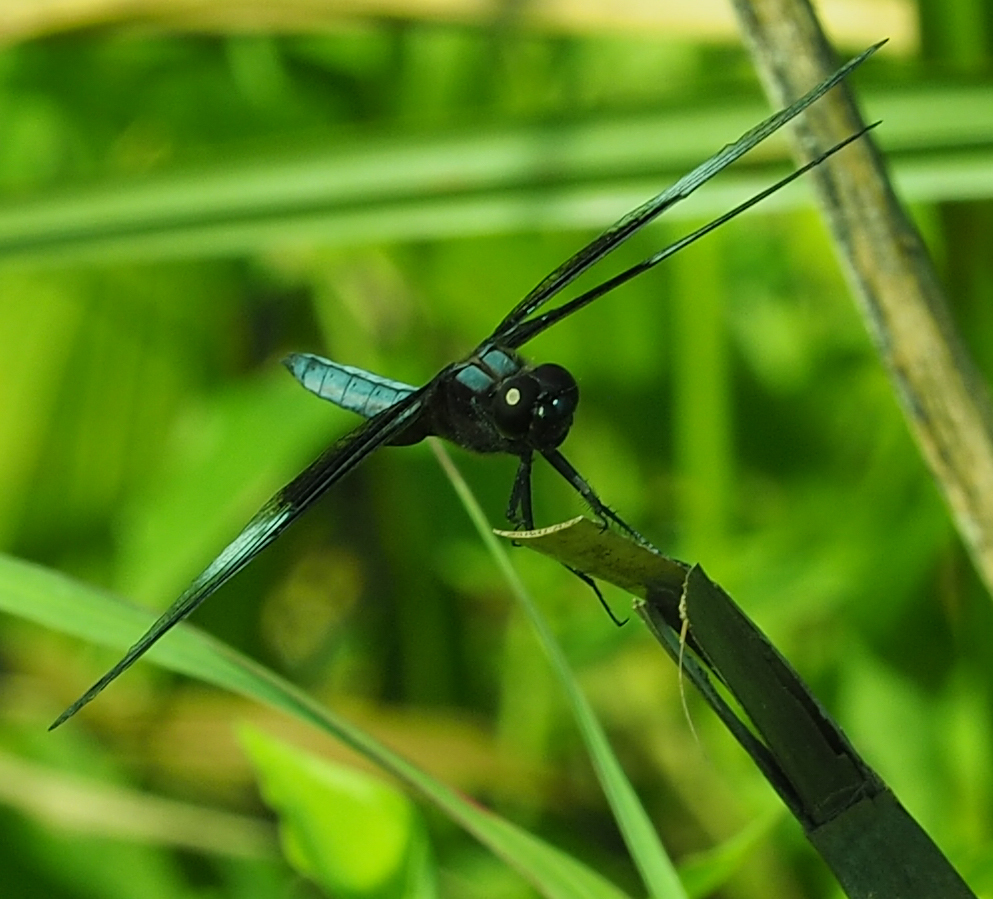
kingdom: Animalia
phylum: Arthropoda
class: Insecta
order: Odonata
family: Libellulidae
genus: Libellula
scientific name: Libellula luctuosa
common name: Widow skimmer
